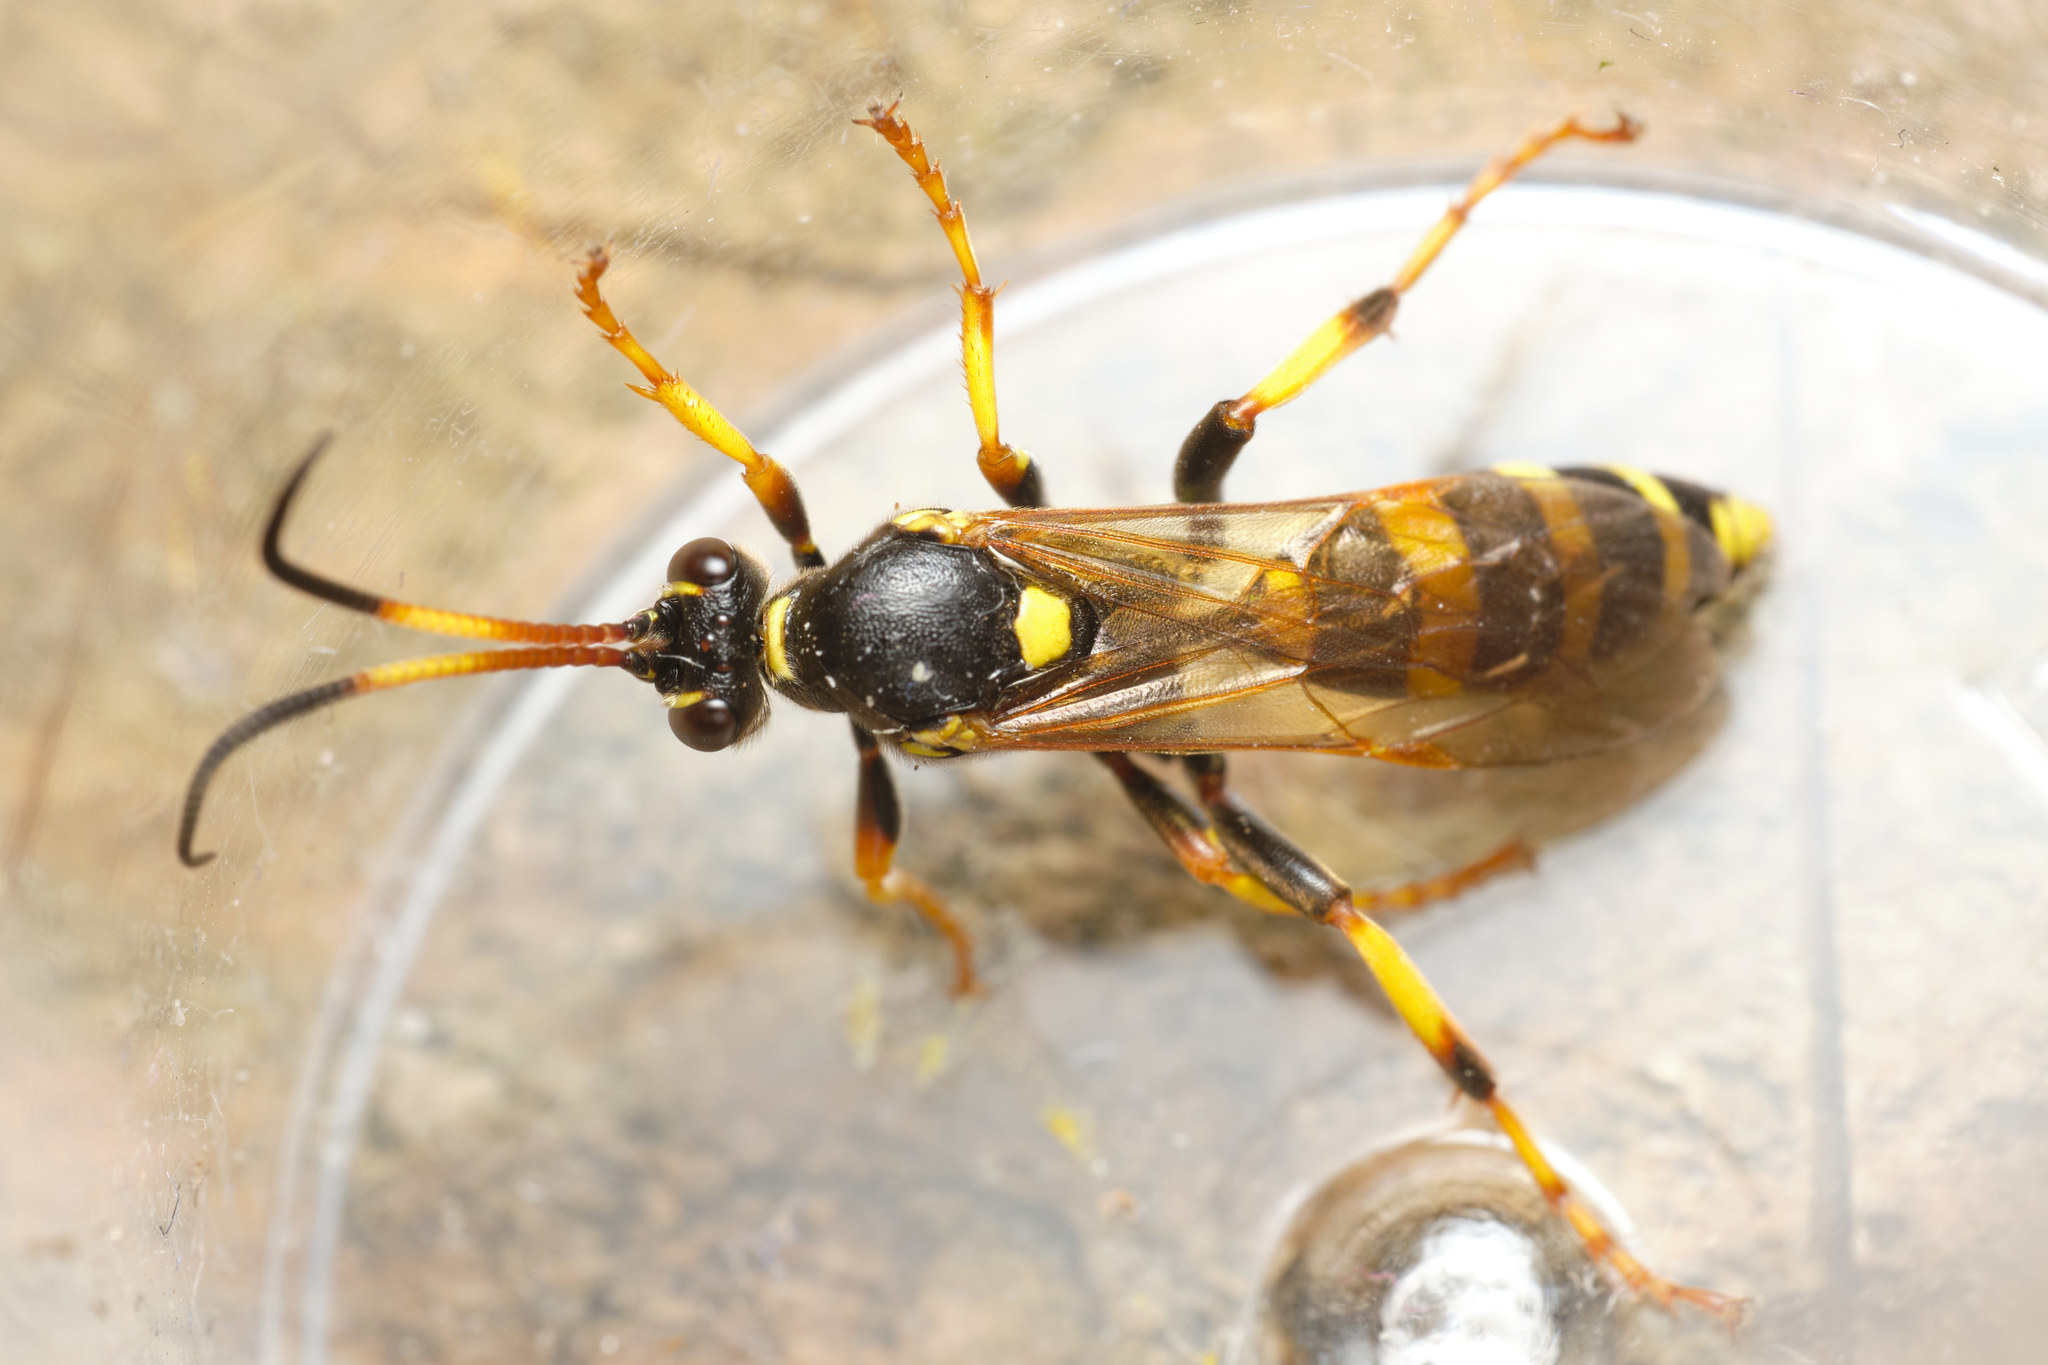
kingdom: Animalia
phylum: Arthropoda
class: Insecta
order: Hymenoptera
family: Ichneumonidae
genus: Ichneumon
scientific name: Ichneumon xanthorius
